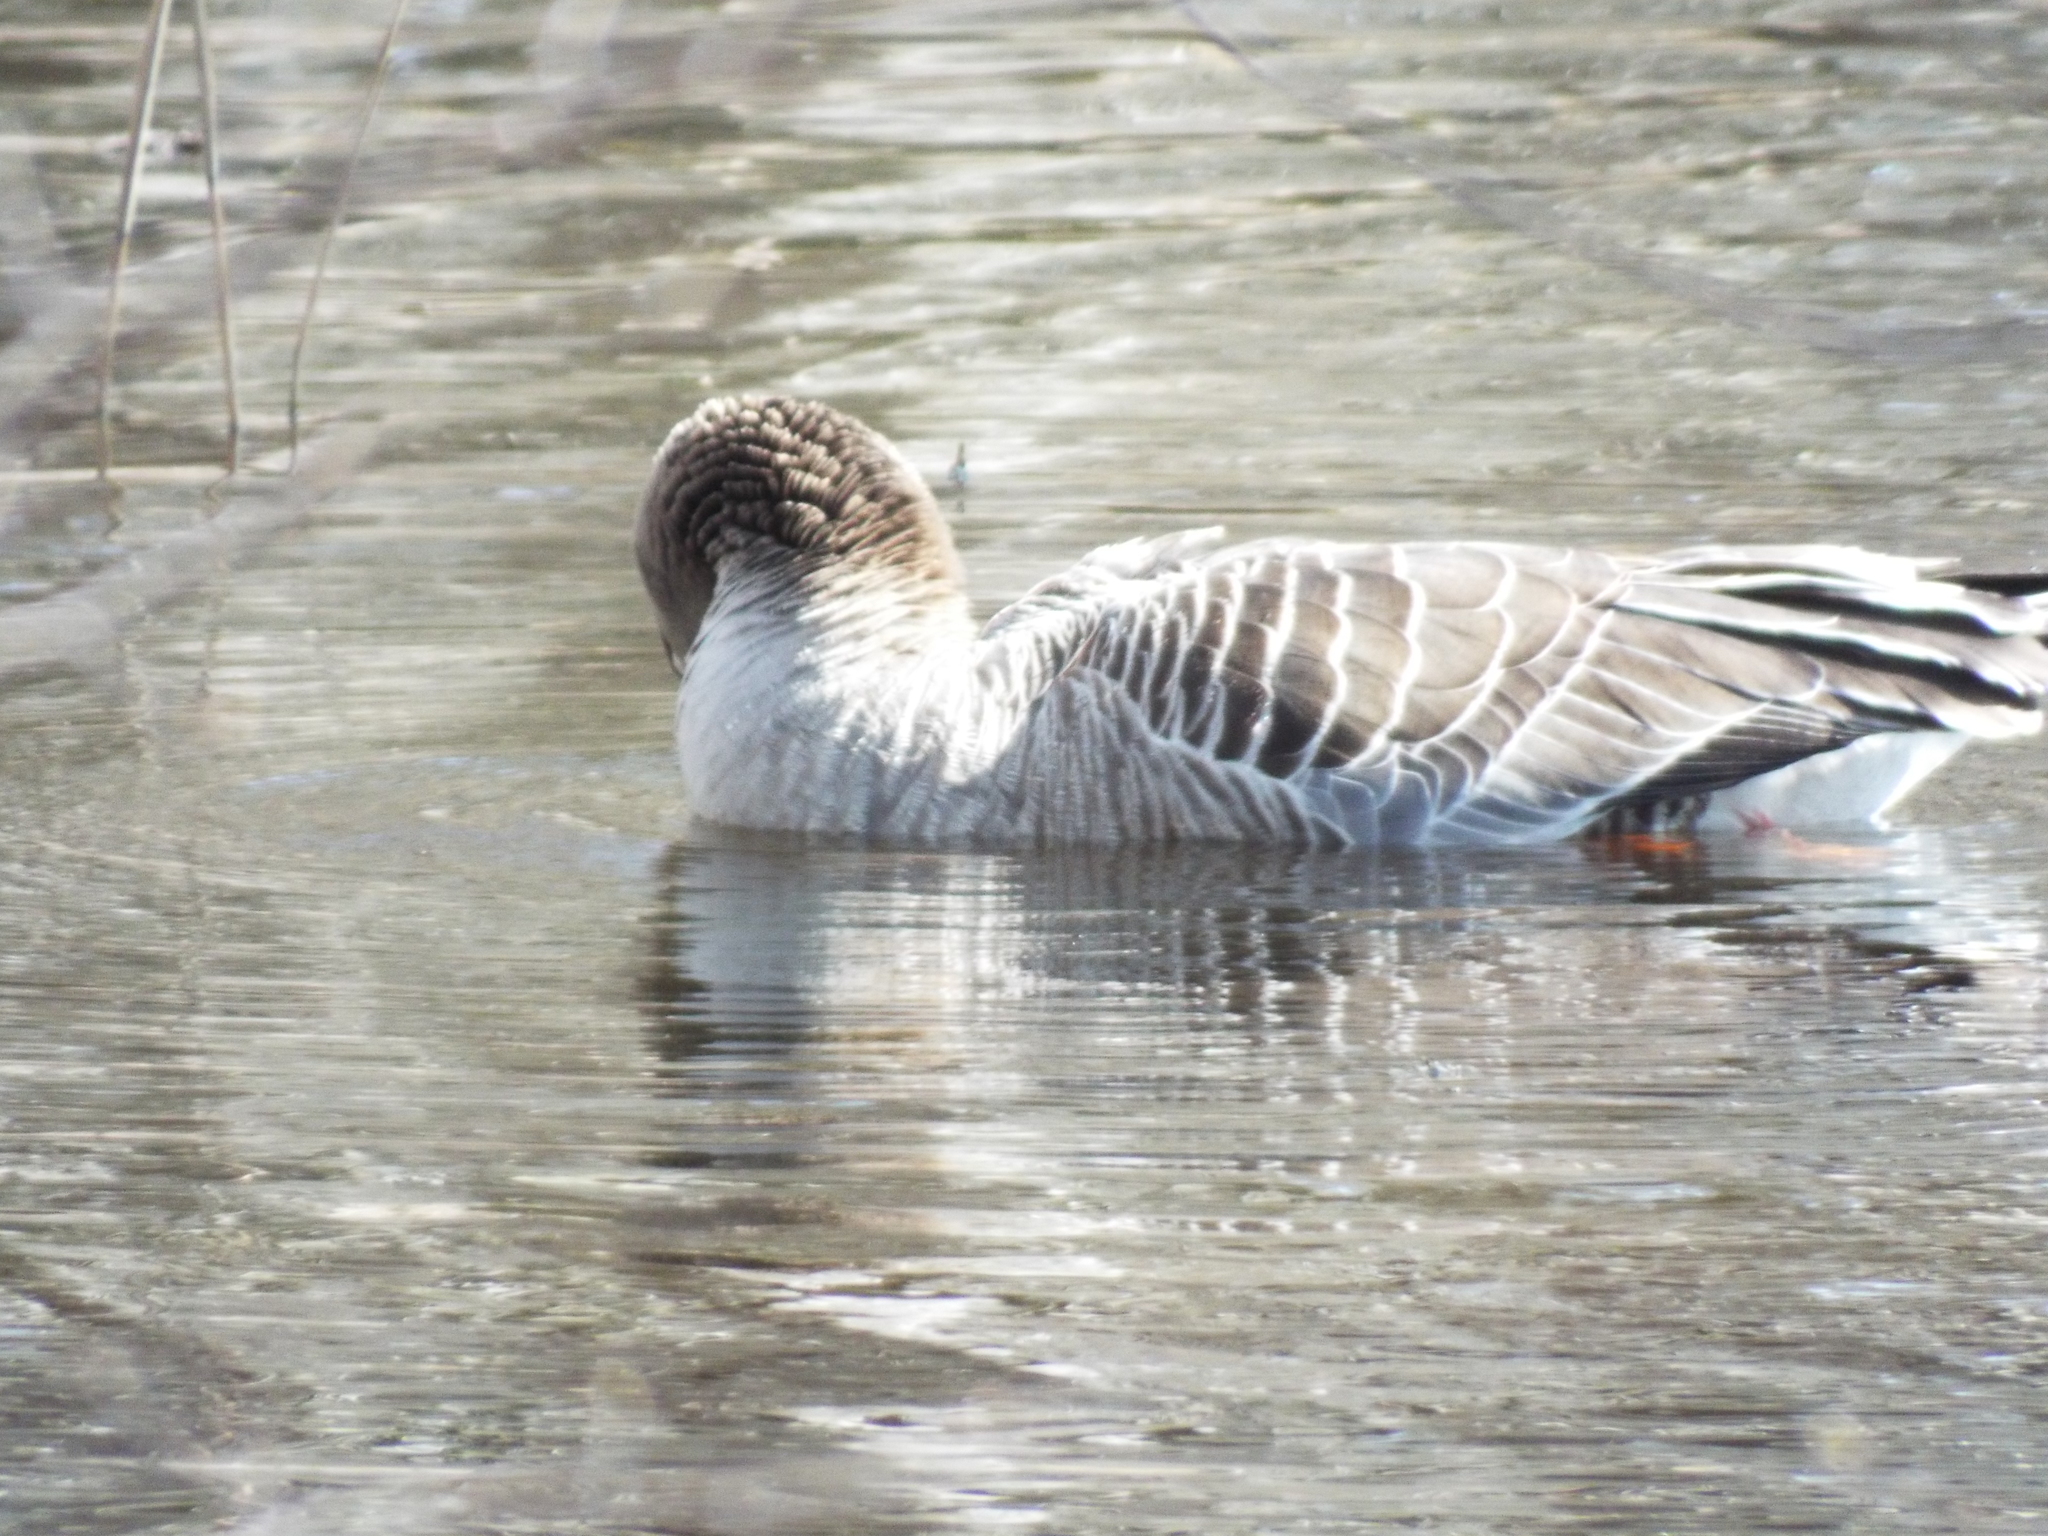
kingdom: Animalia
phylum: Chordata
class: Aves
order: Anseriformes
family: Anatidae
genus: Anser
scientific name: Anser anser
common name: Greylag goose
